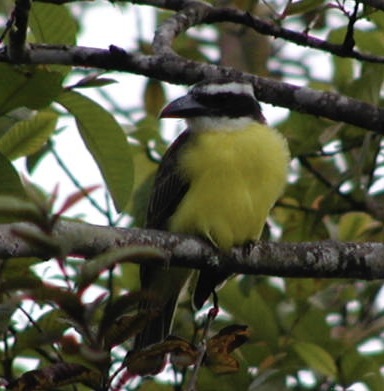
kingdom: Animalia
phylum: Chordata
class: Aves
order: Passeriformes
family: Tyrannidae
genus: Megarynchus
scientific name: Megarynchus pitangua
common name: Boat-billed flycatcher
